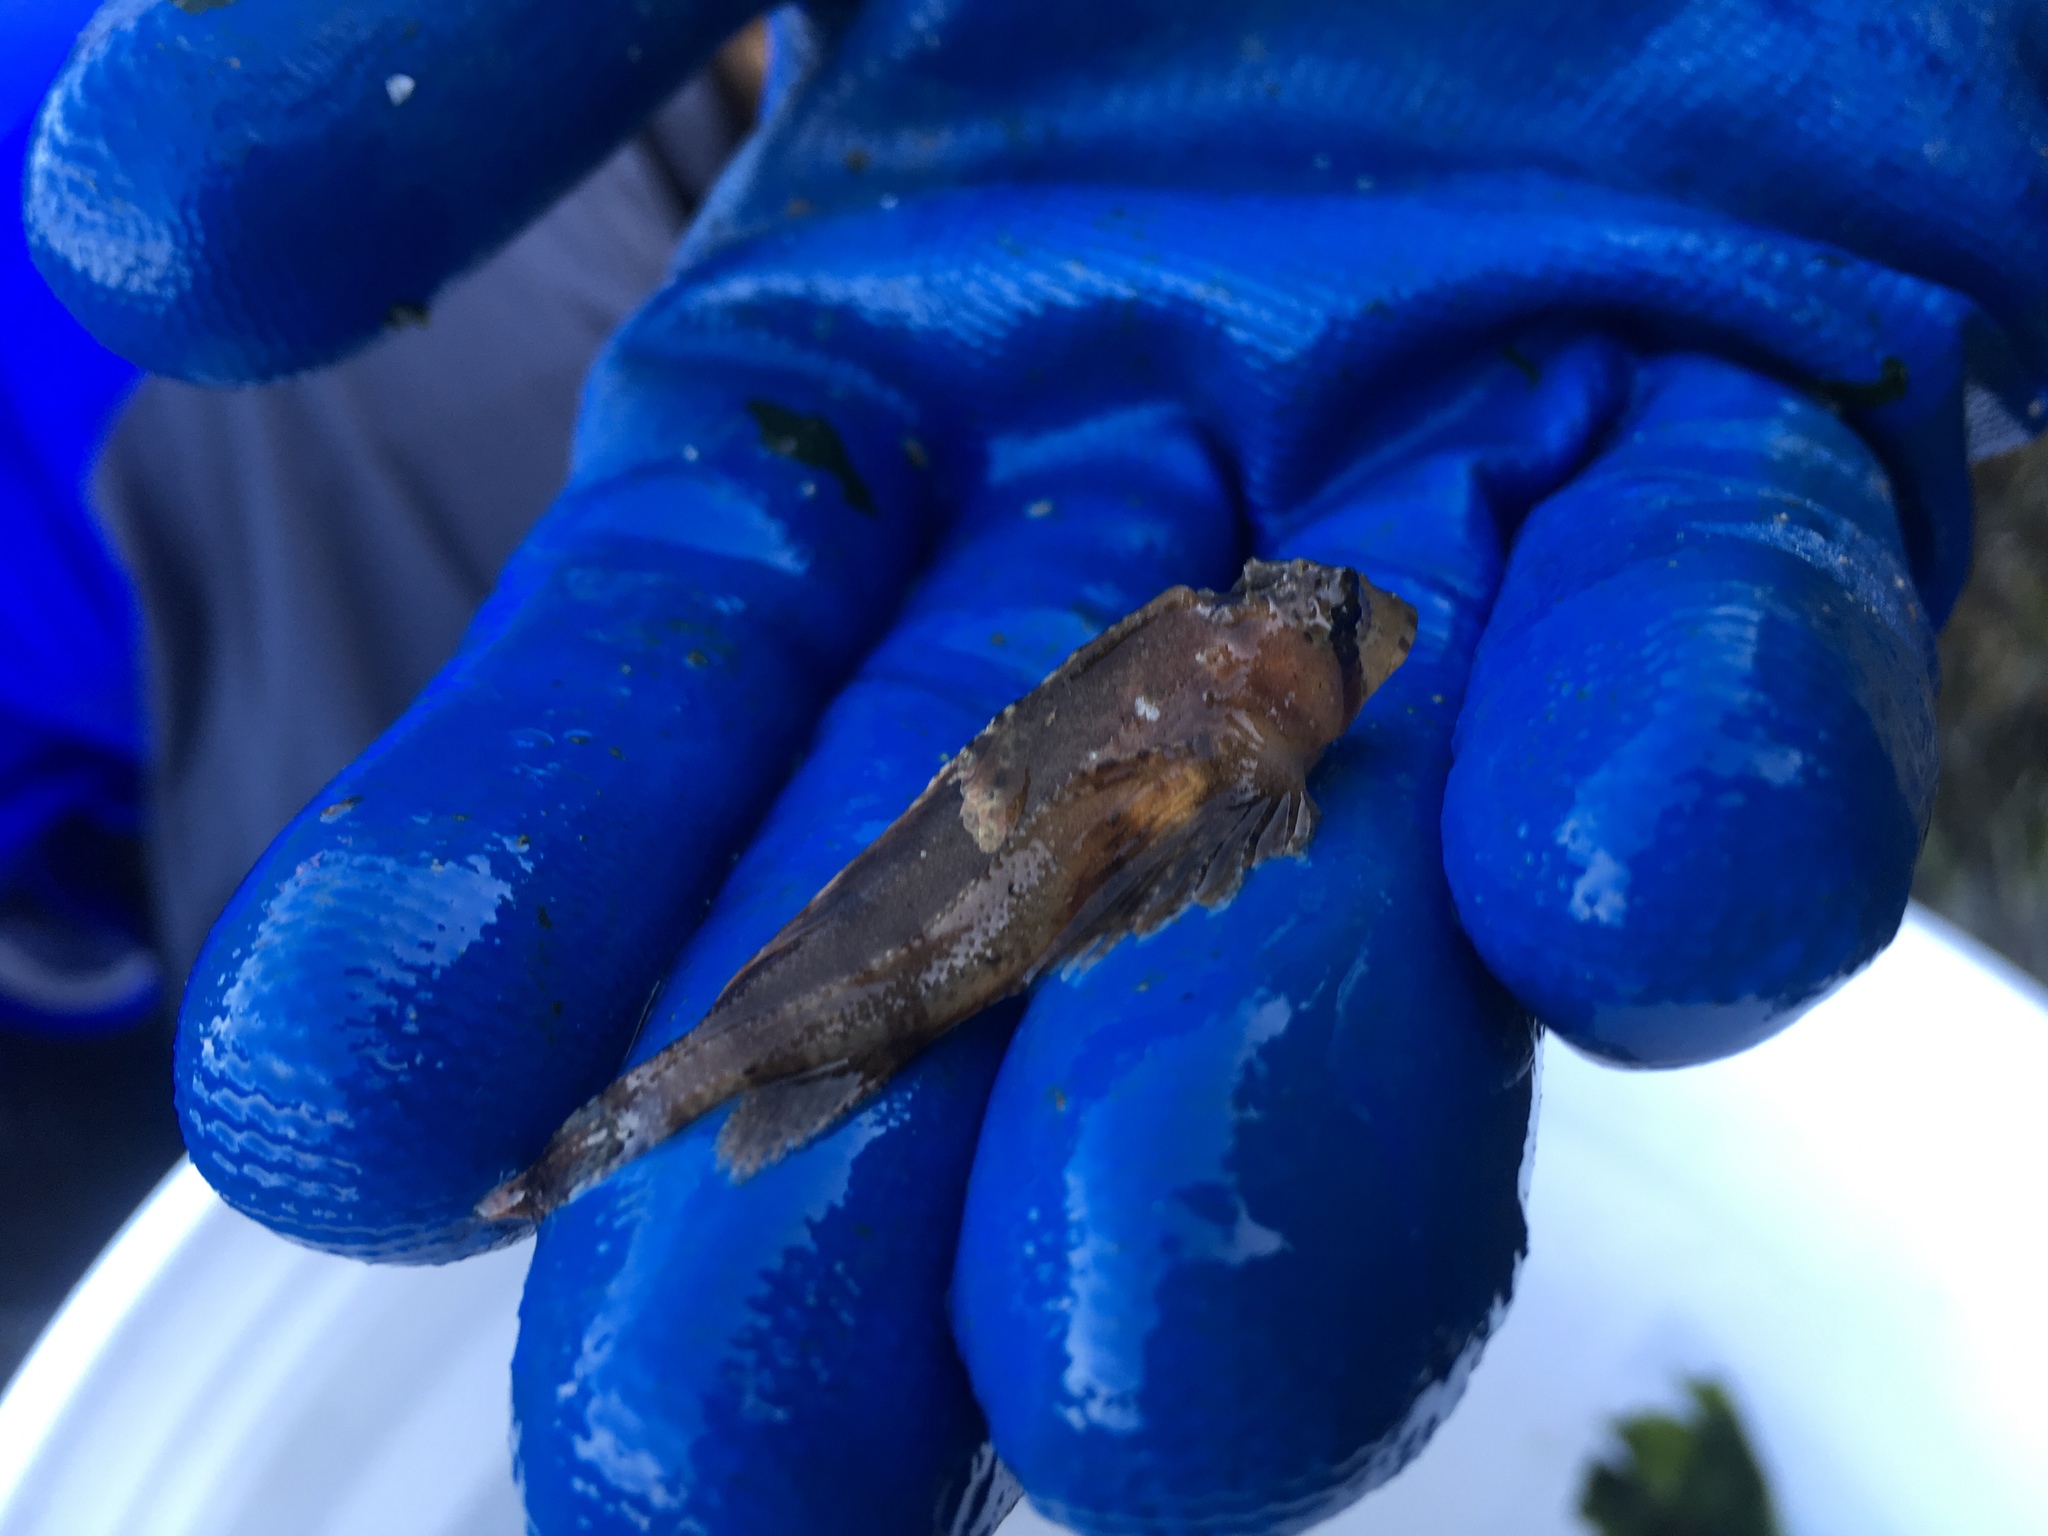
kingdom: Animalia
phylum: Chordata
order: Scorpaeniformes
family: Hemitripteridae
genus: Nautichthys
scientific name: Nautichthys oculofasciatus
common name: Sailfin sculpin
